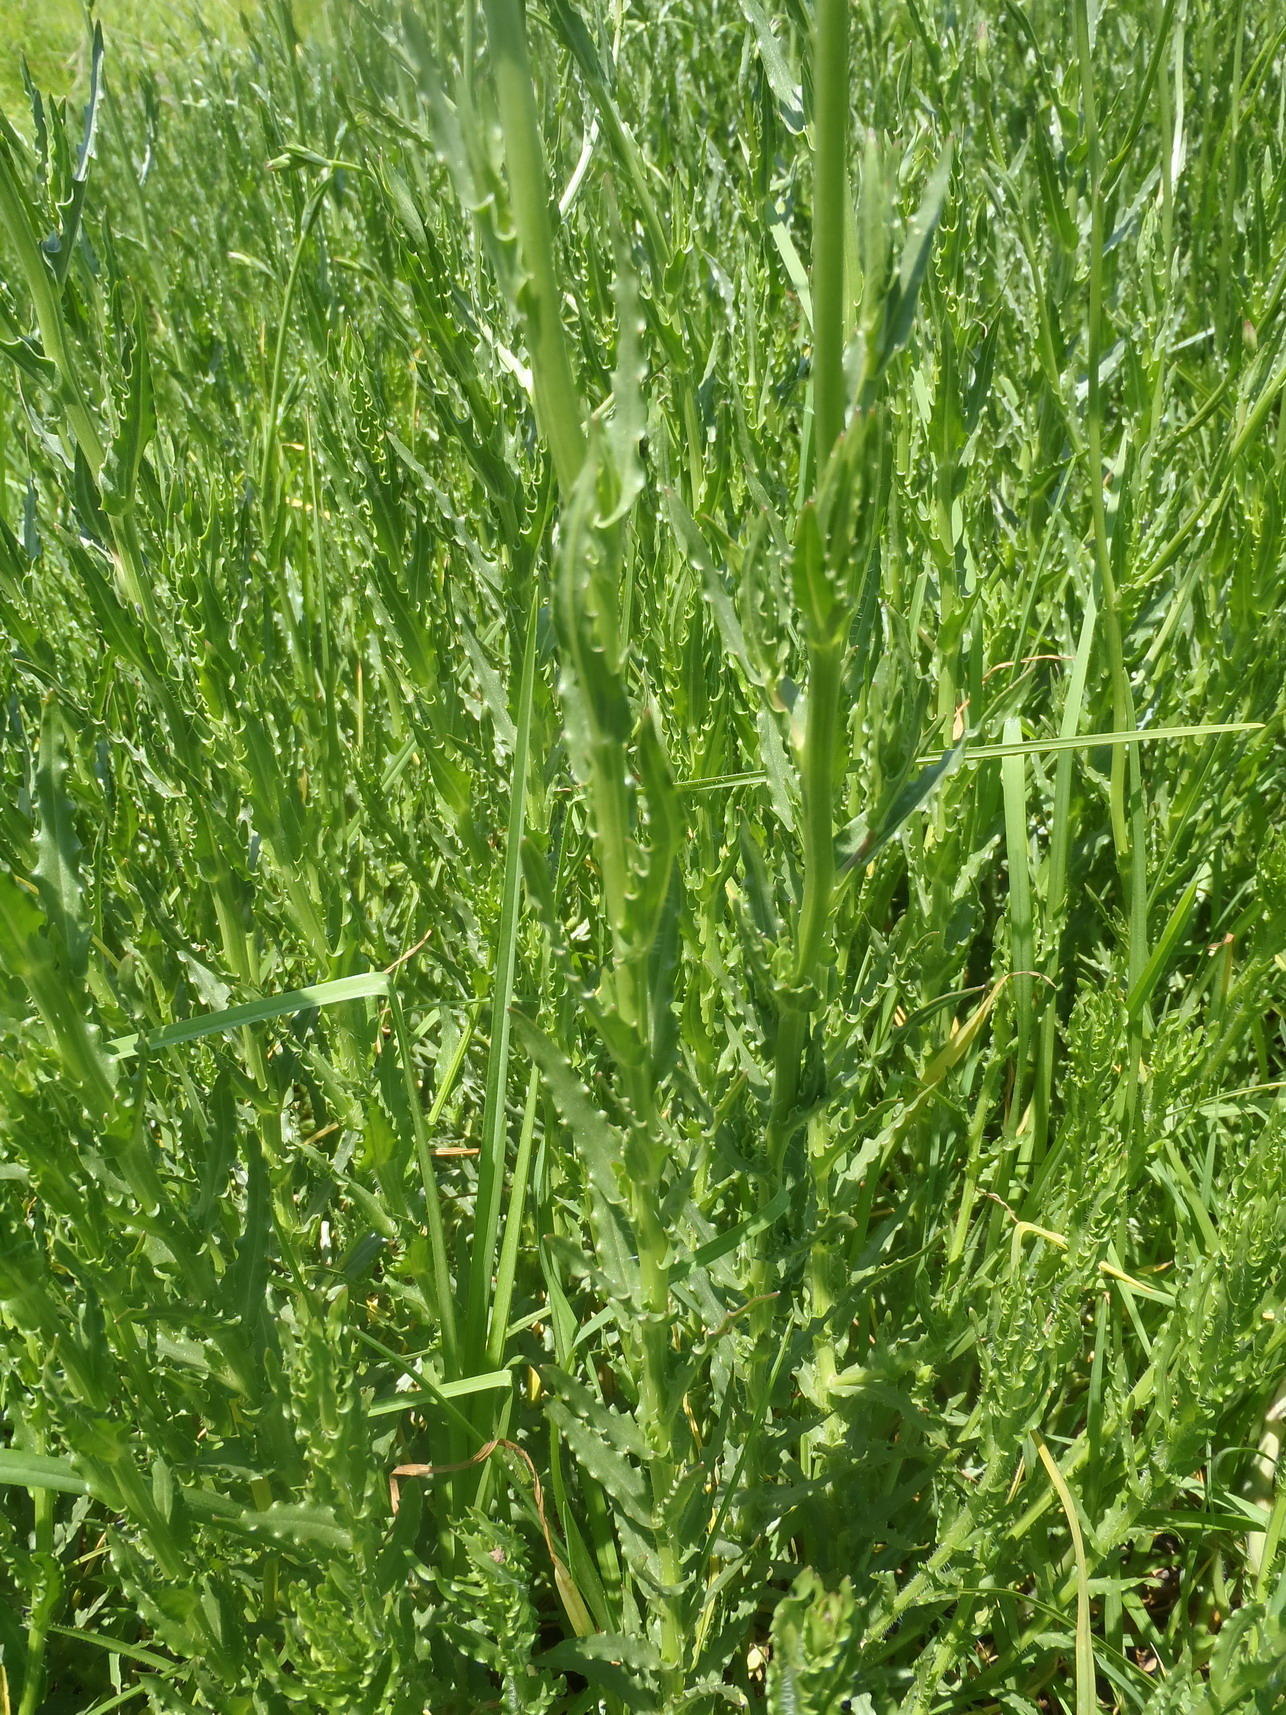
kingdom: Plantae
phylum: Tracheophyta
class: Magnoliopsida
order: Asterales
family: Campanulaceae
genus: Wahlenbergia
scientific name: Wahlenbergia undulata
